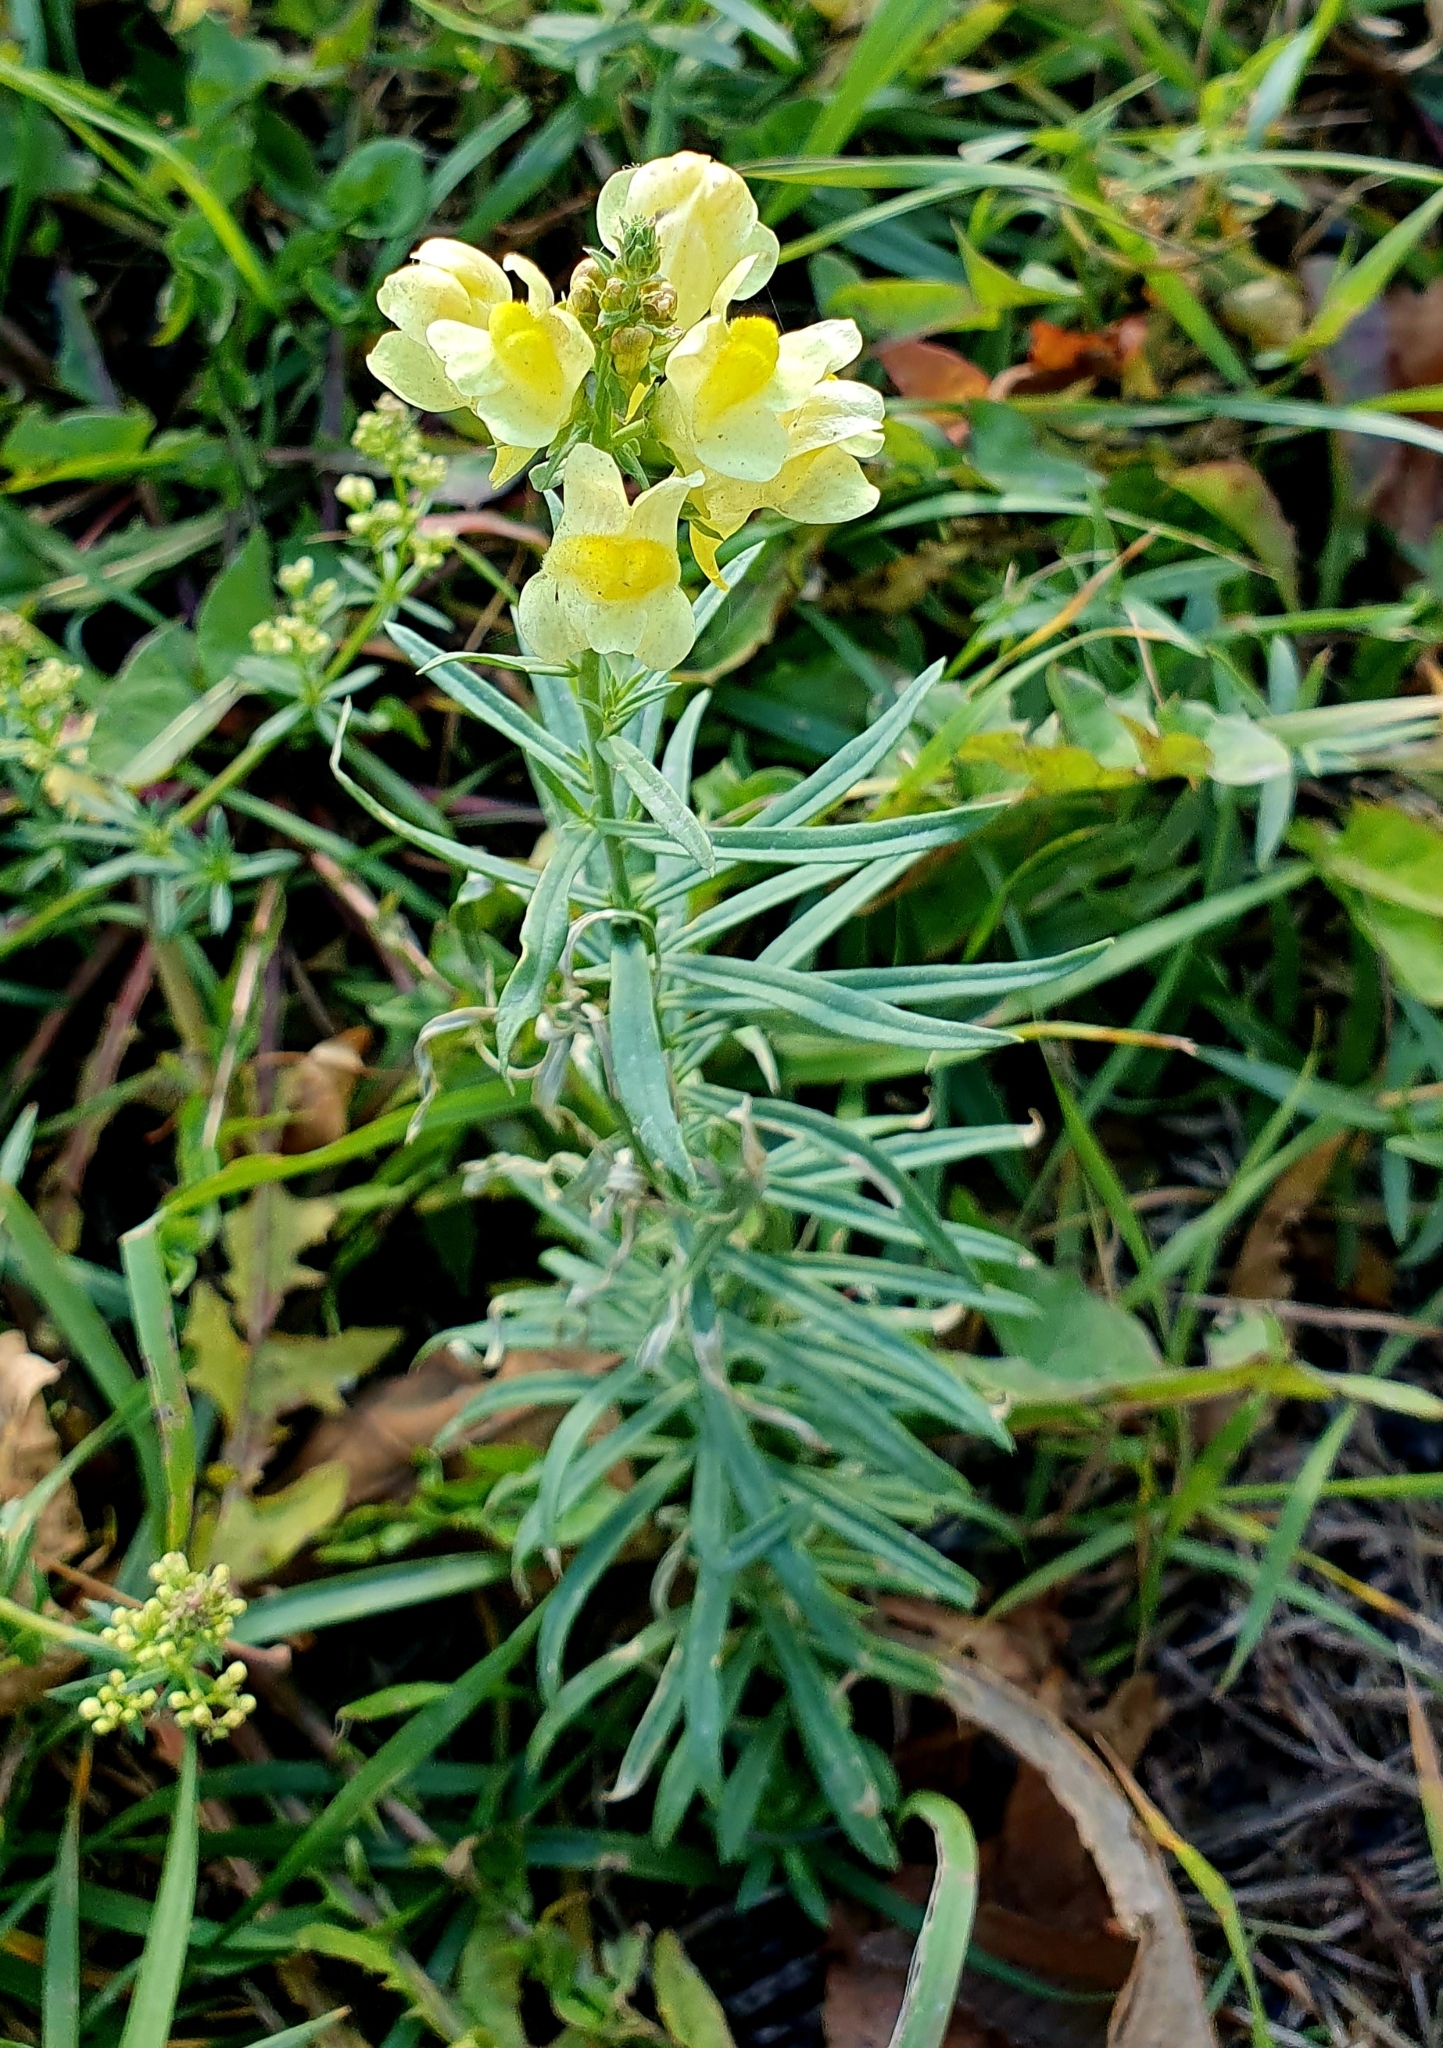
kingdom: Plantae
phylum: Tracheophyta
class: Magnoliopsida
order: Lamiales
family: Plantaginaceae
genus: Linaria
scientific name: Linaria vulgaris
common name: Butter and eggs
